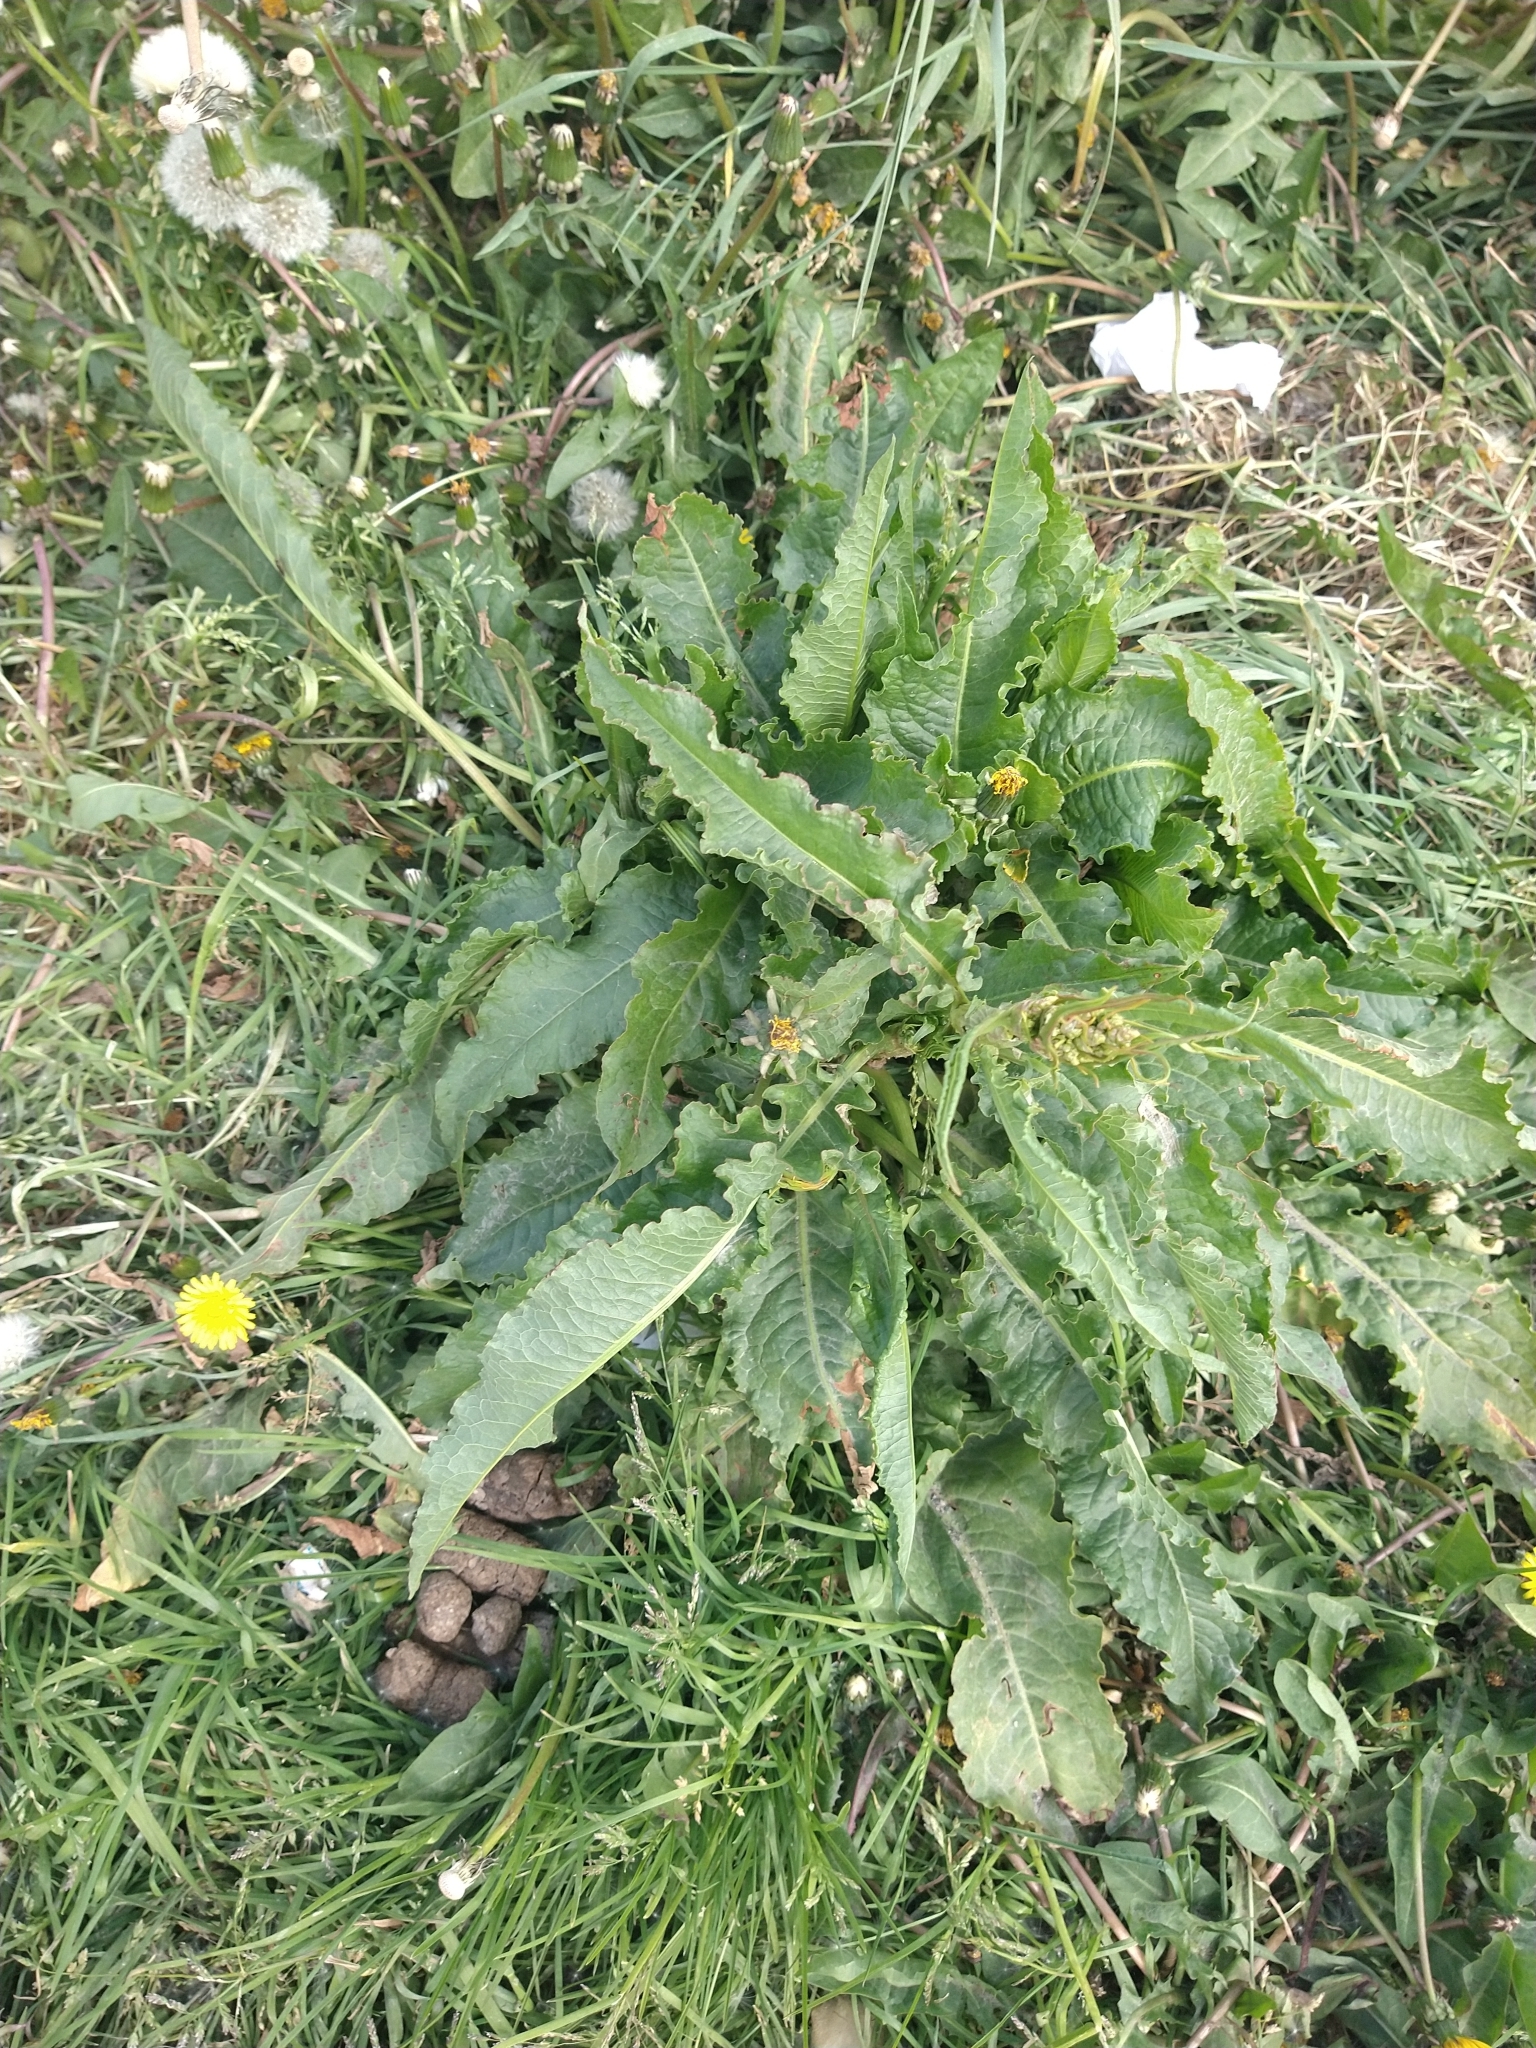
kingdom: Plantae
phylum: Tracheophyta
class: Magnoliopsida
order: Caryophyllales
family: Polygonaceae
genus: Rumex
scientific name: Rumex crispus
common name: Curled dock
